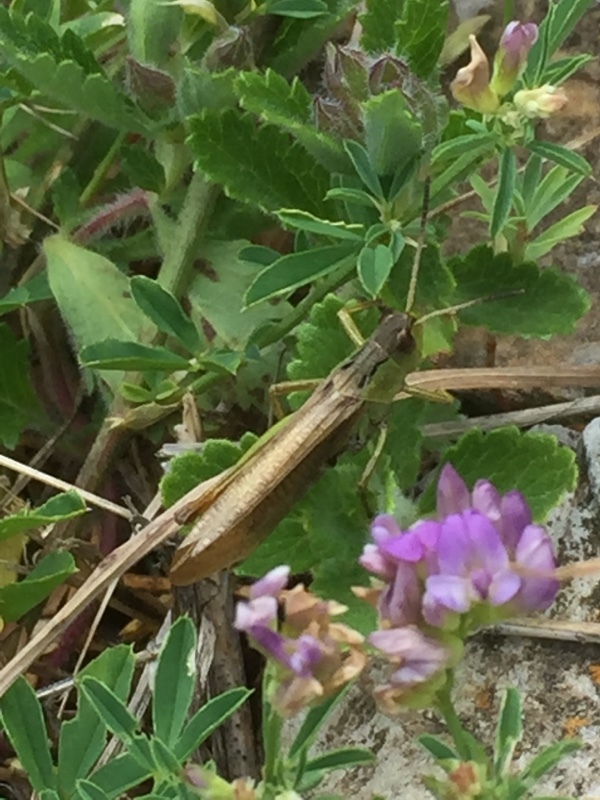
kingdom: Animalia
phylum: Arthropoda
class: Insecta
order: Orthoptera
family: Acrididae
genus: Stauroderus
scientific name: Stauroderus scalaris
